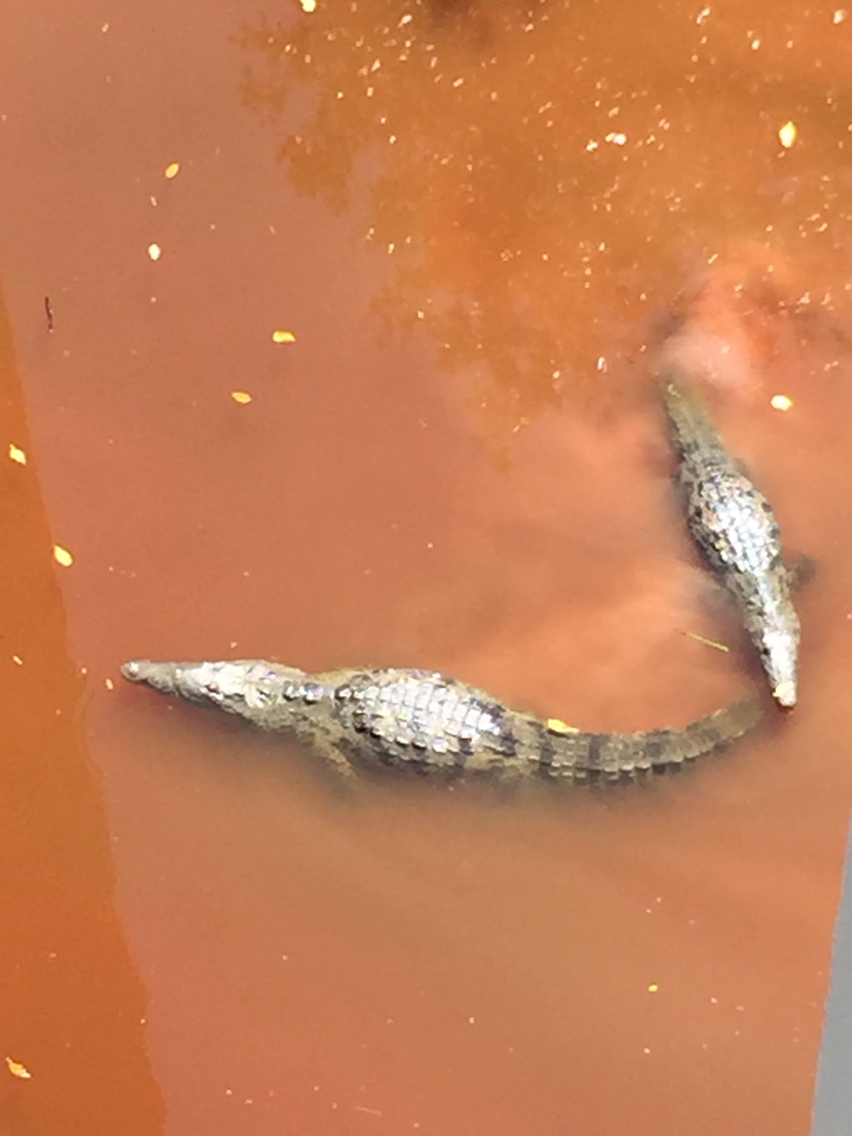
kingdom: Animalia
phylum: Chordata
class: Crocodylia
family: Crocodylidae
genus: Crocodylus
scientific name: Crocodylus acutus
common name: American crocodile
